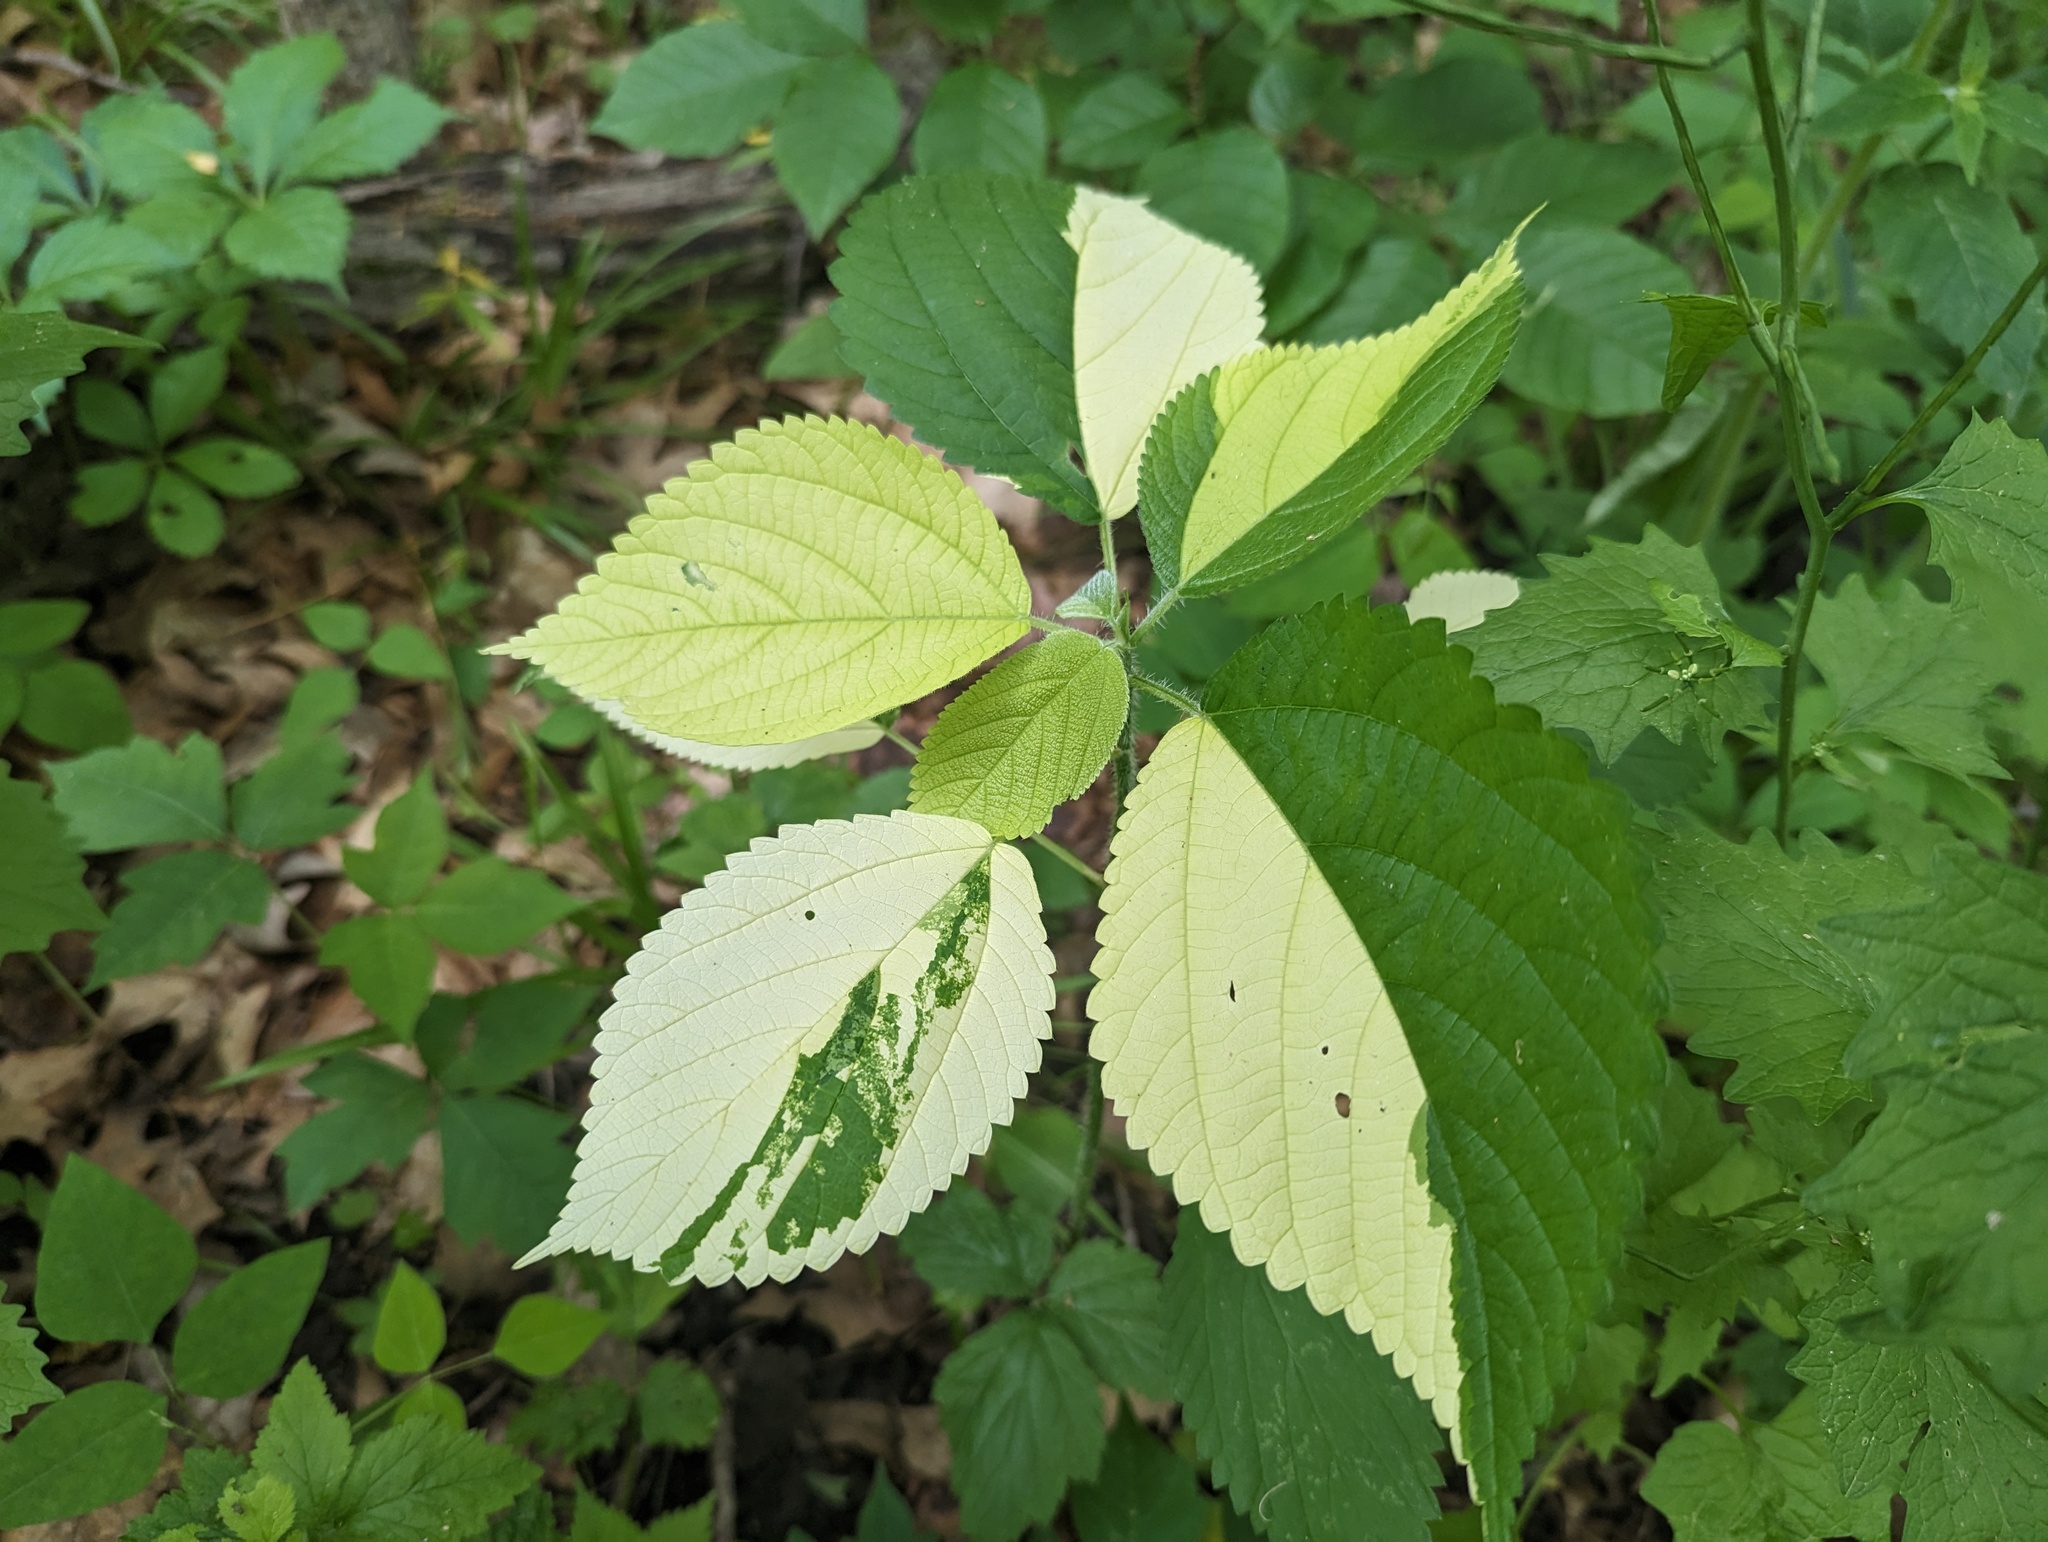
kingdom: Plantae
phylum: Tracheophyta
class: Magnoliopsida
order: Rosales
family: Urticaceae
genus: Laportea
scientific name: Laportea canadensis
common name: Canada nettle
